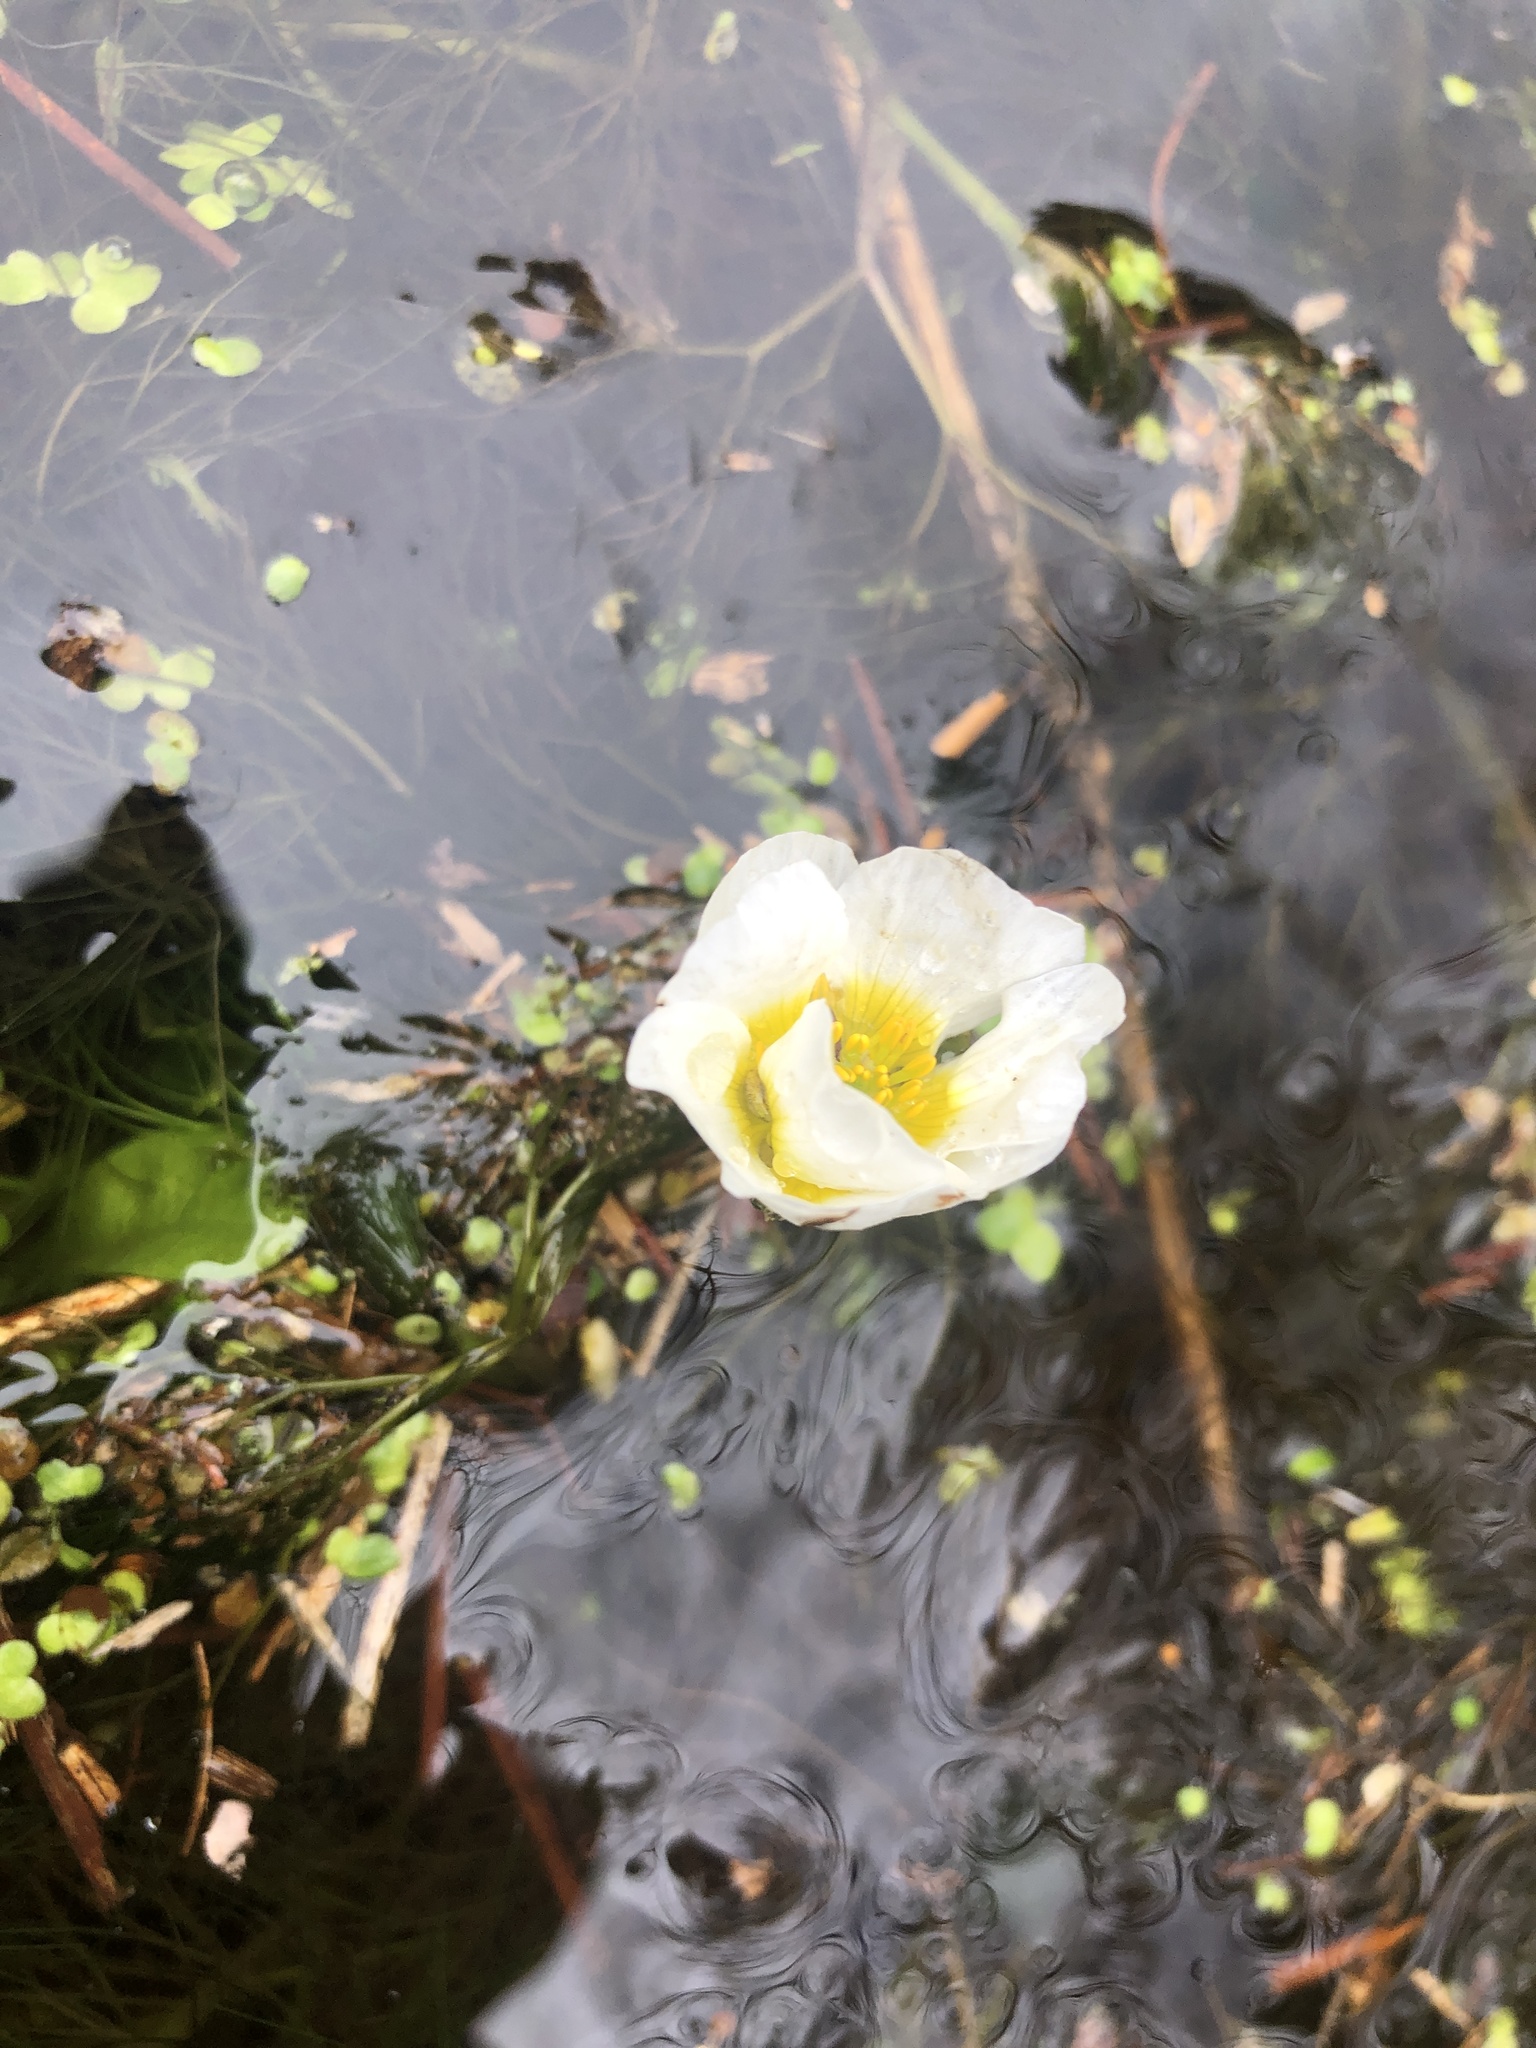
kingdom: Plantae
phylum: Tracheophyta
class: Magnoliopsida
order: Ranunculales
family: Ranunculaceae
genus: Ranunculus
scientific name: Ranunculus aquatilis
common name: Common water-crowfoot
